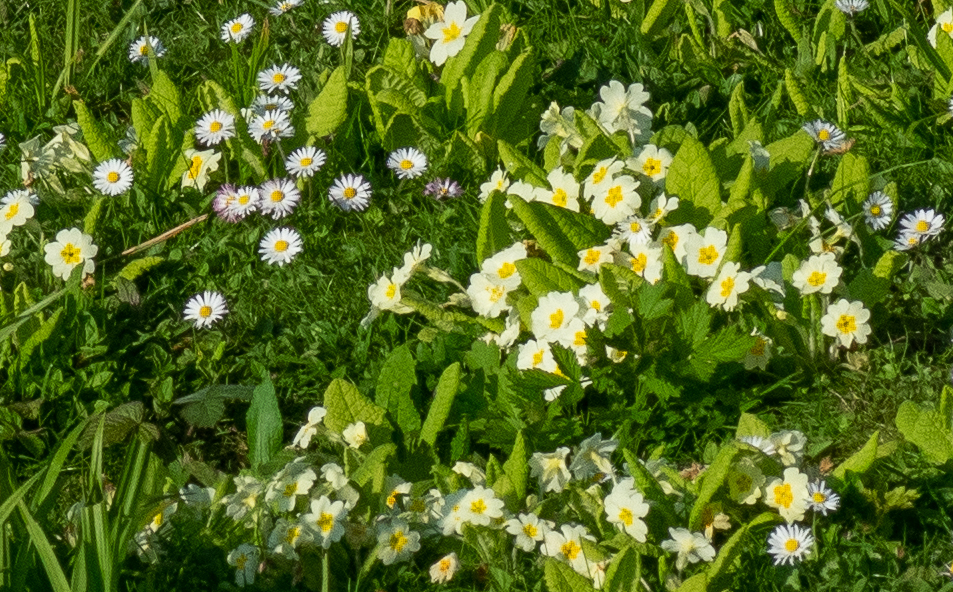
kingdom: Plantae
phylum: Tracheophyta
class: Magnoliopsida
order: Ericales
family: Primulaceae
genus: Primula
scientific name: Primula vulgaris
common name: Primrose
